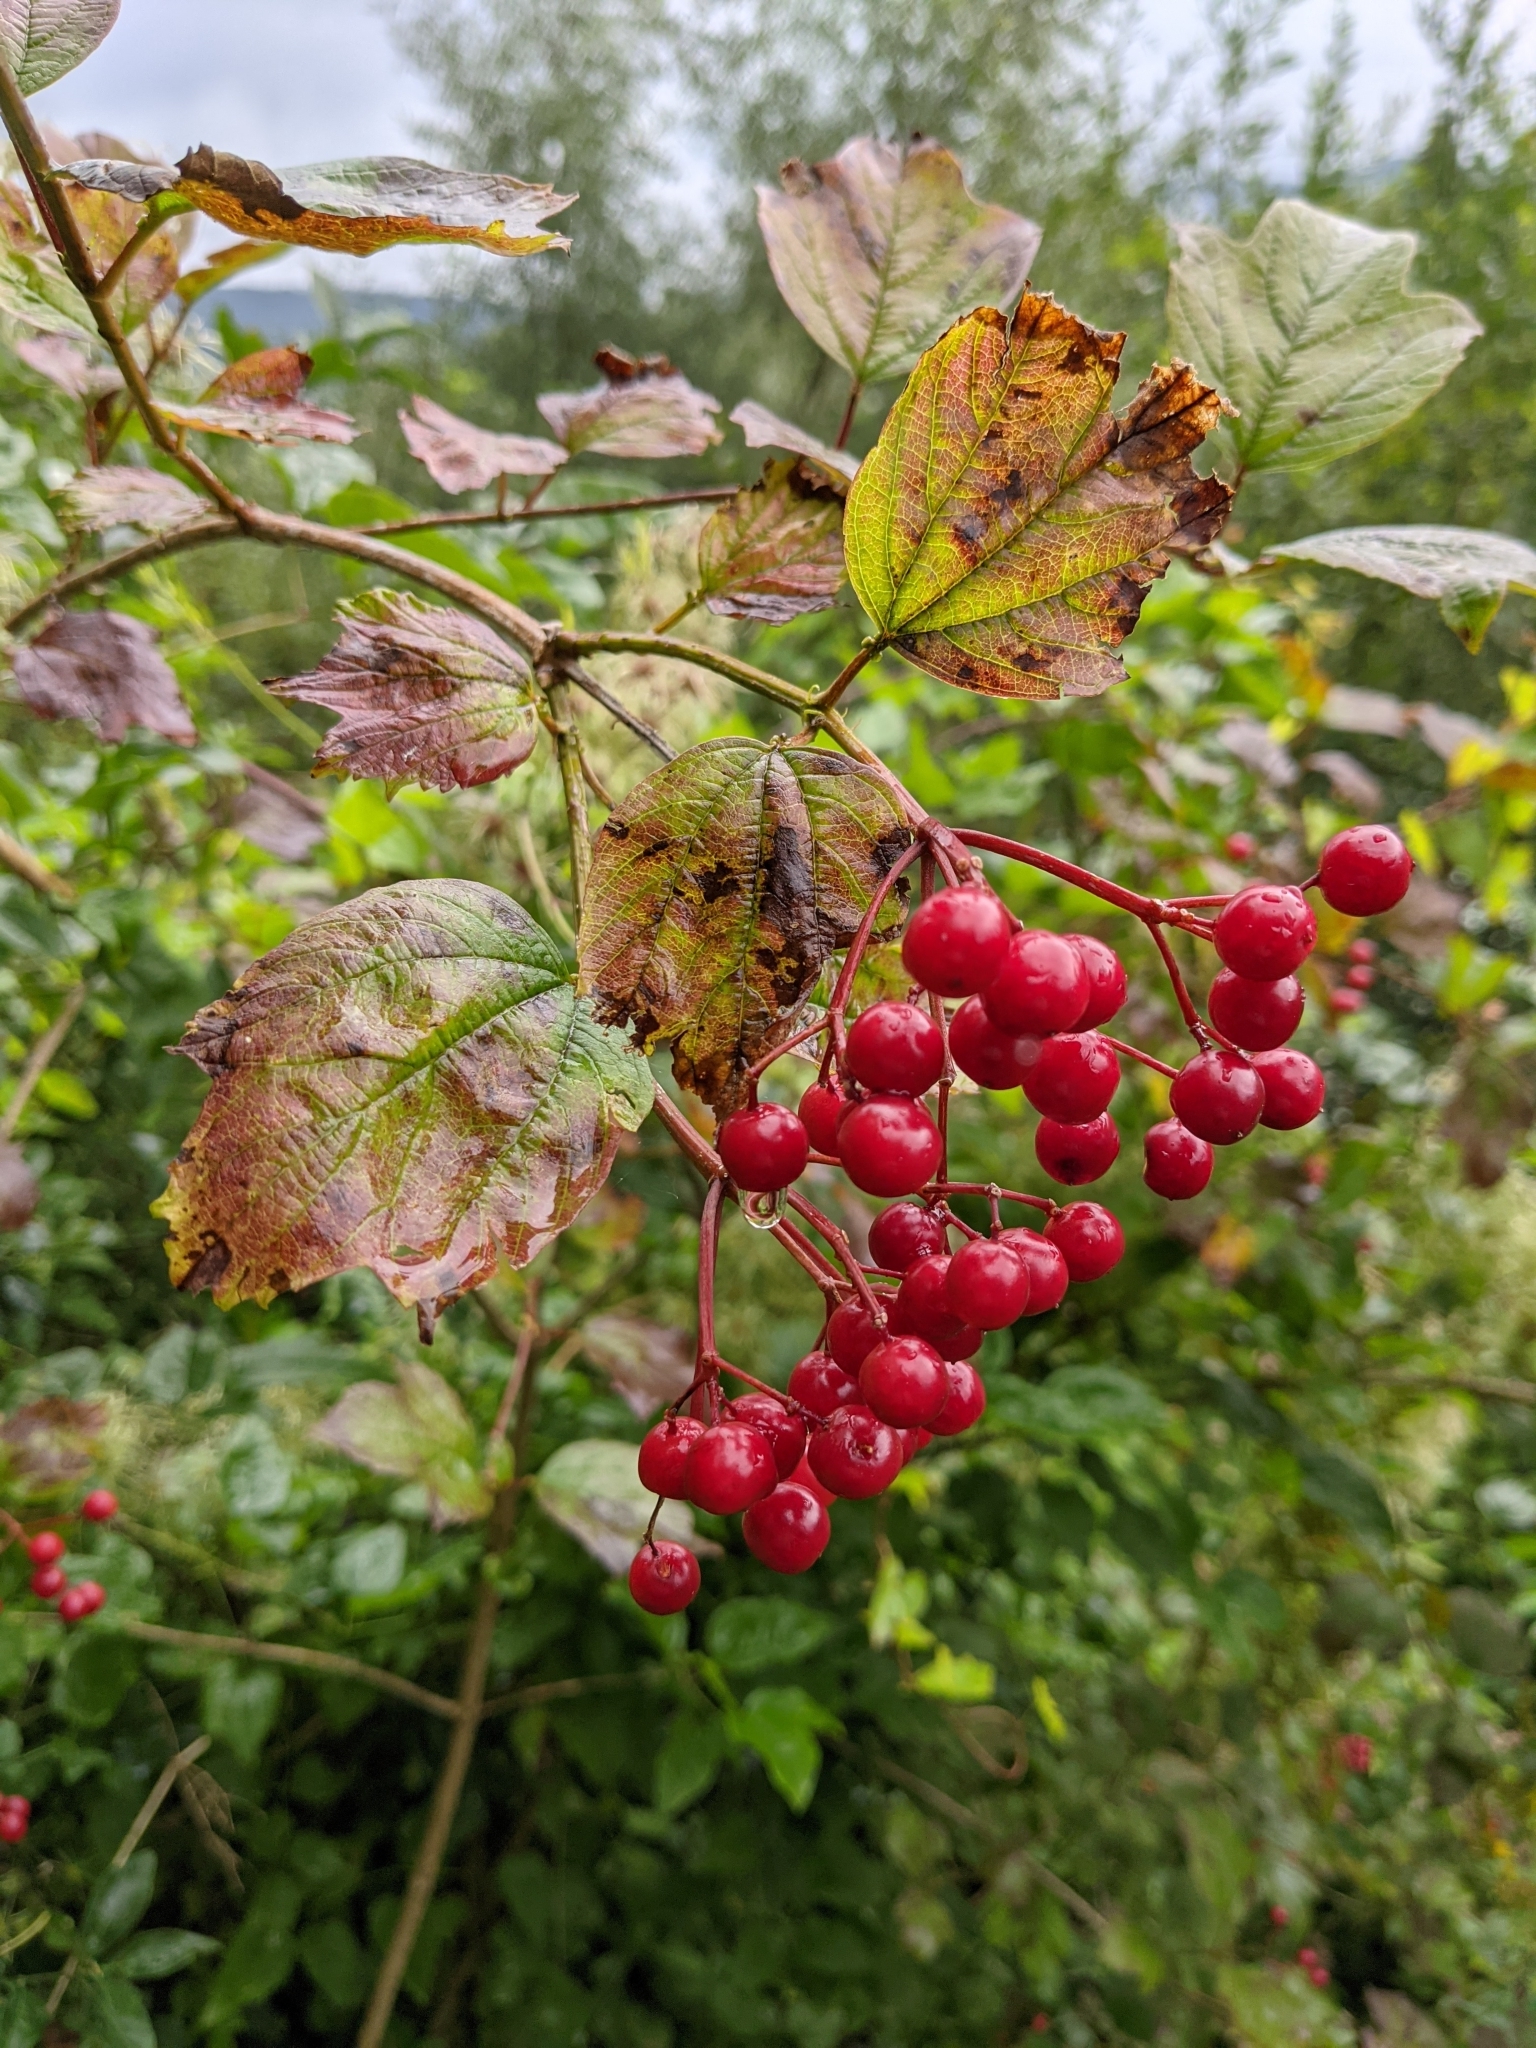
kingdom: Plantae
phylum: Tracheophyta
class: Magnoliopsida
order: Dipsacales
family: Viburnaceae
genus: Viburnum
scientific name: Viburnum opulus
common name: Guelder-rose
